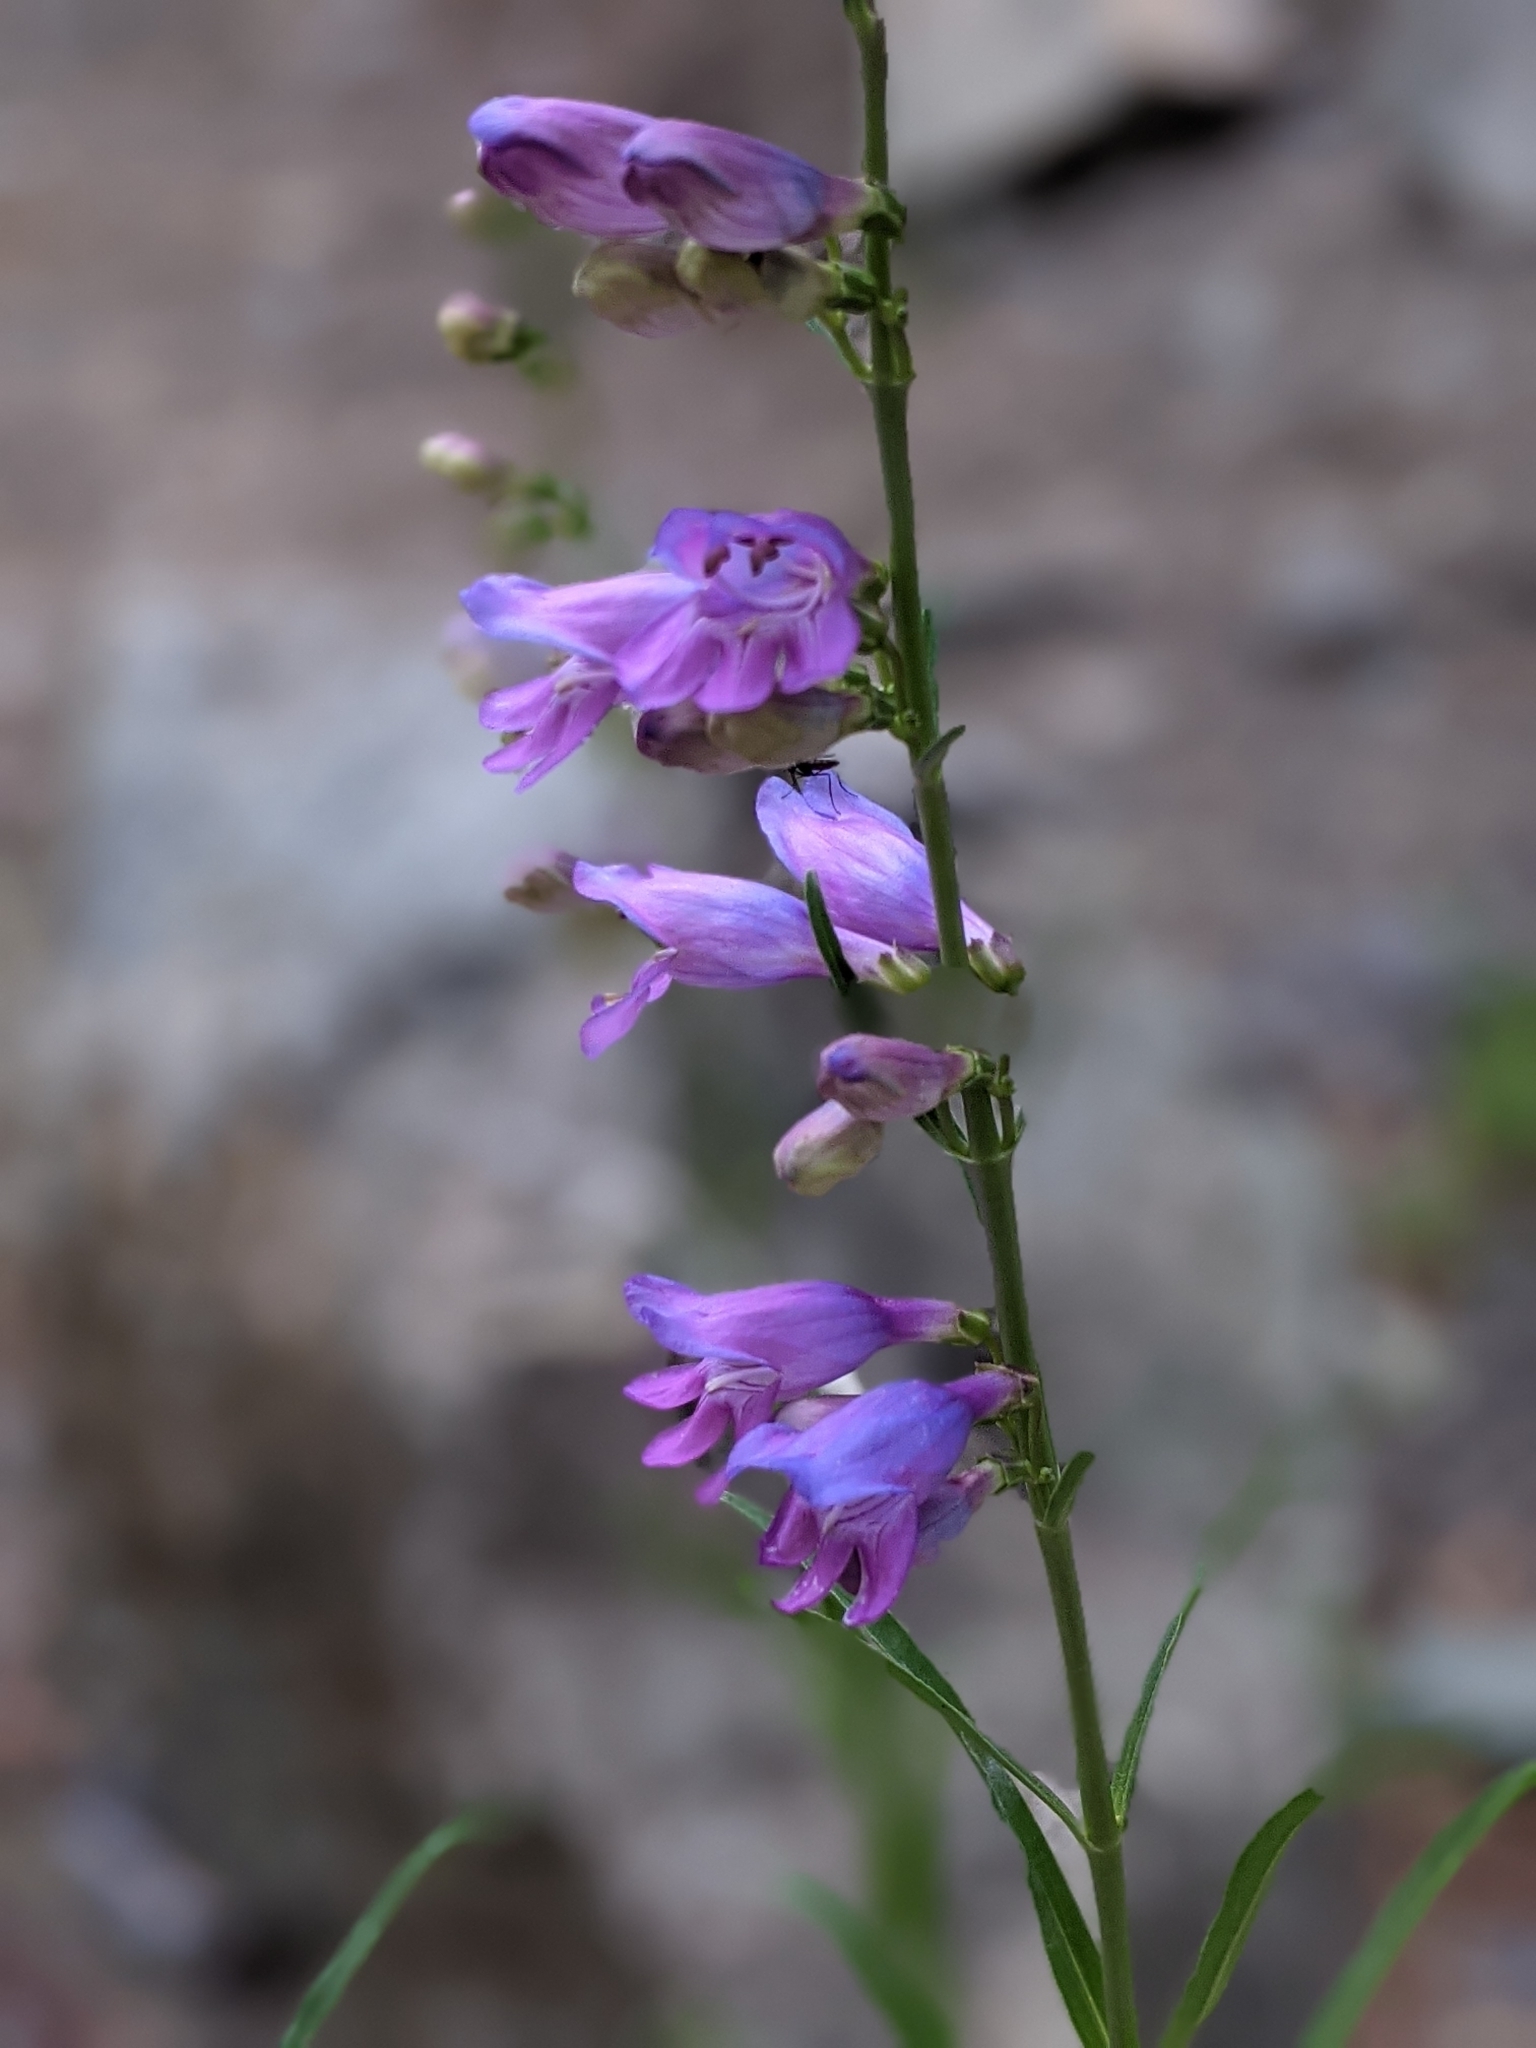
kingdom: Plantae
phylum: Tracheophyta
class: Magnoliopsida
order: Lamiales
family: Plantaginaceae
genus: Penstemon
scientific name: Penstemon virgatus
